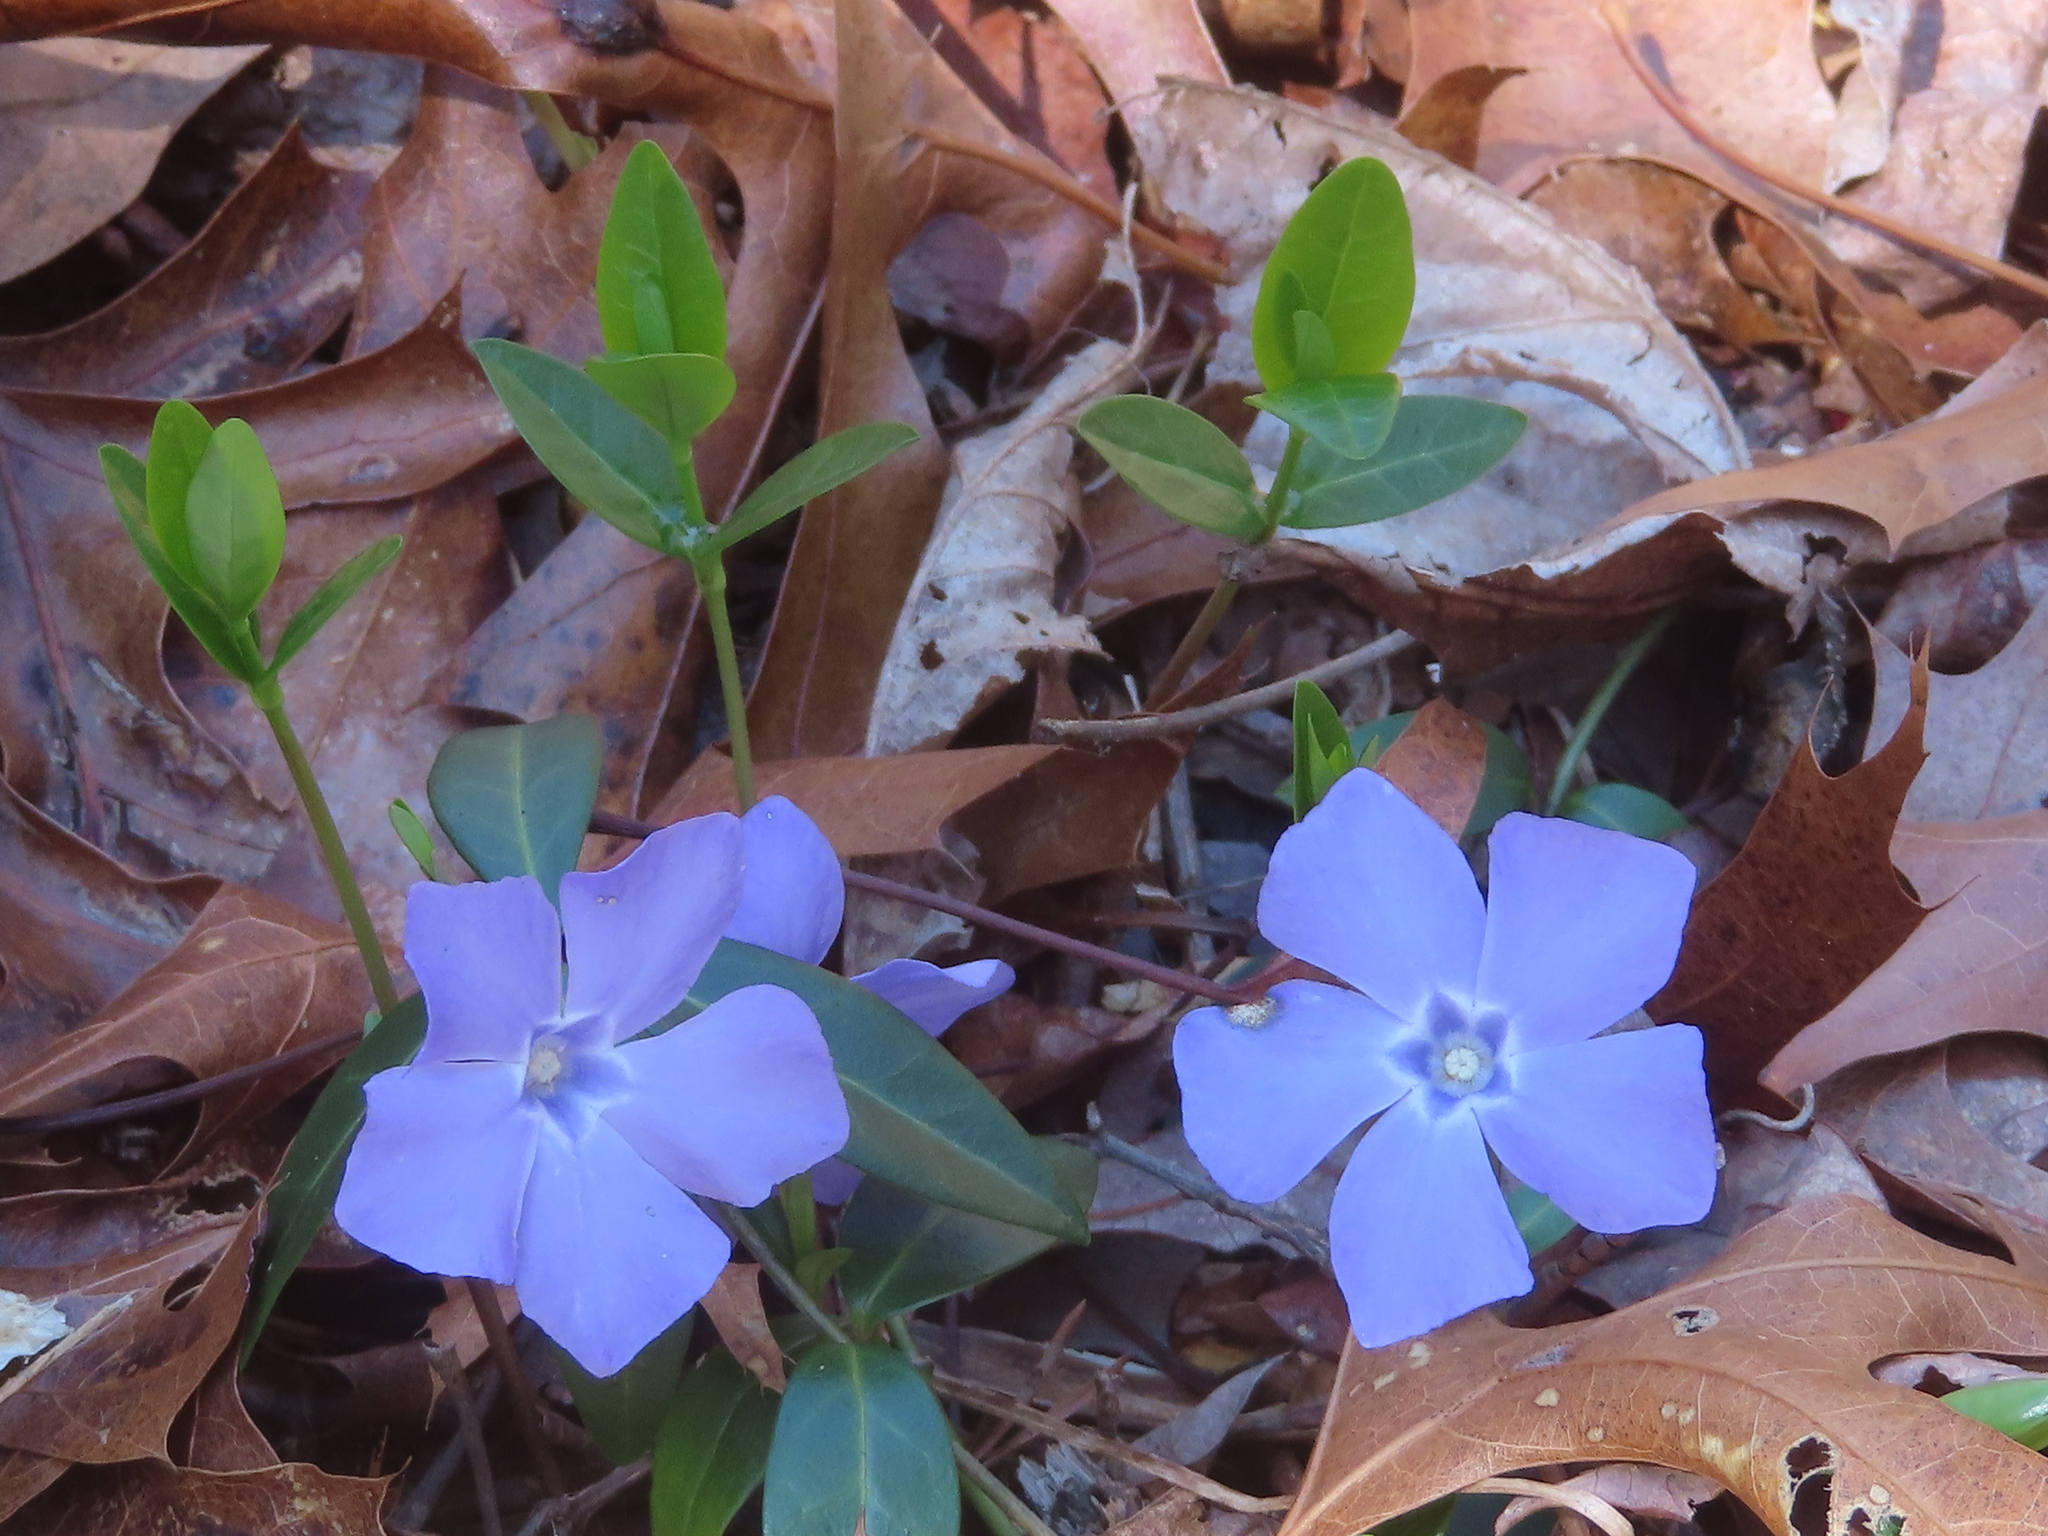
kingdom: Plantae
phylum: Tracheophyta
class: Magnoliopsida
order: Gentianales
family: Apocynaceae
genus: Vinca
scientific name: Vinca minor
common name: Lesser periwinkle
